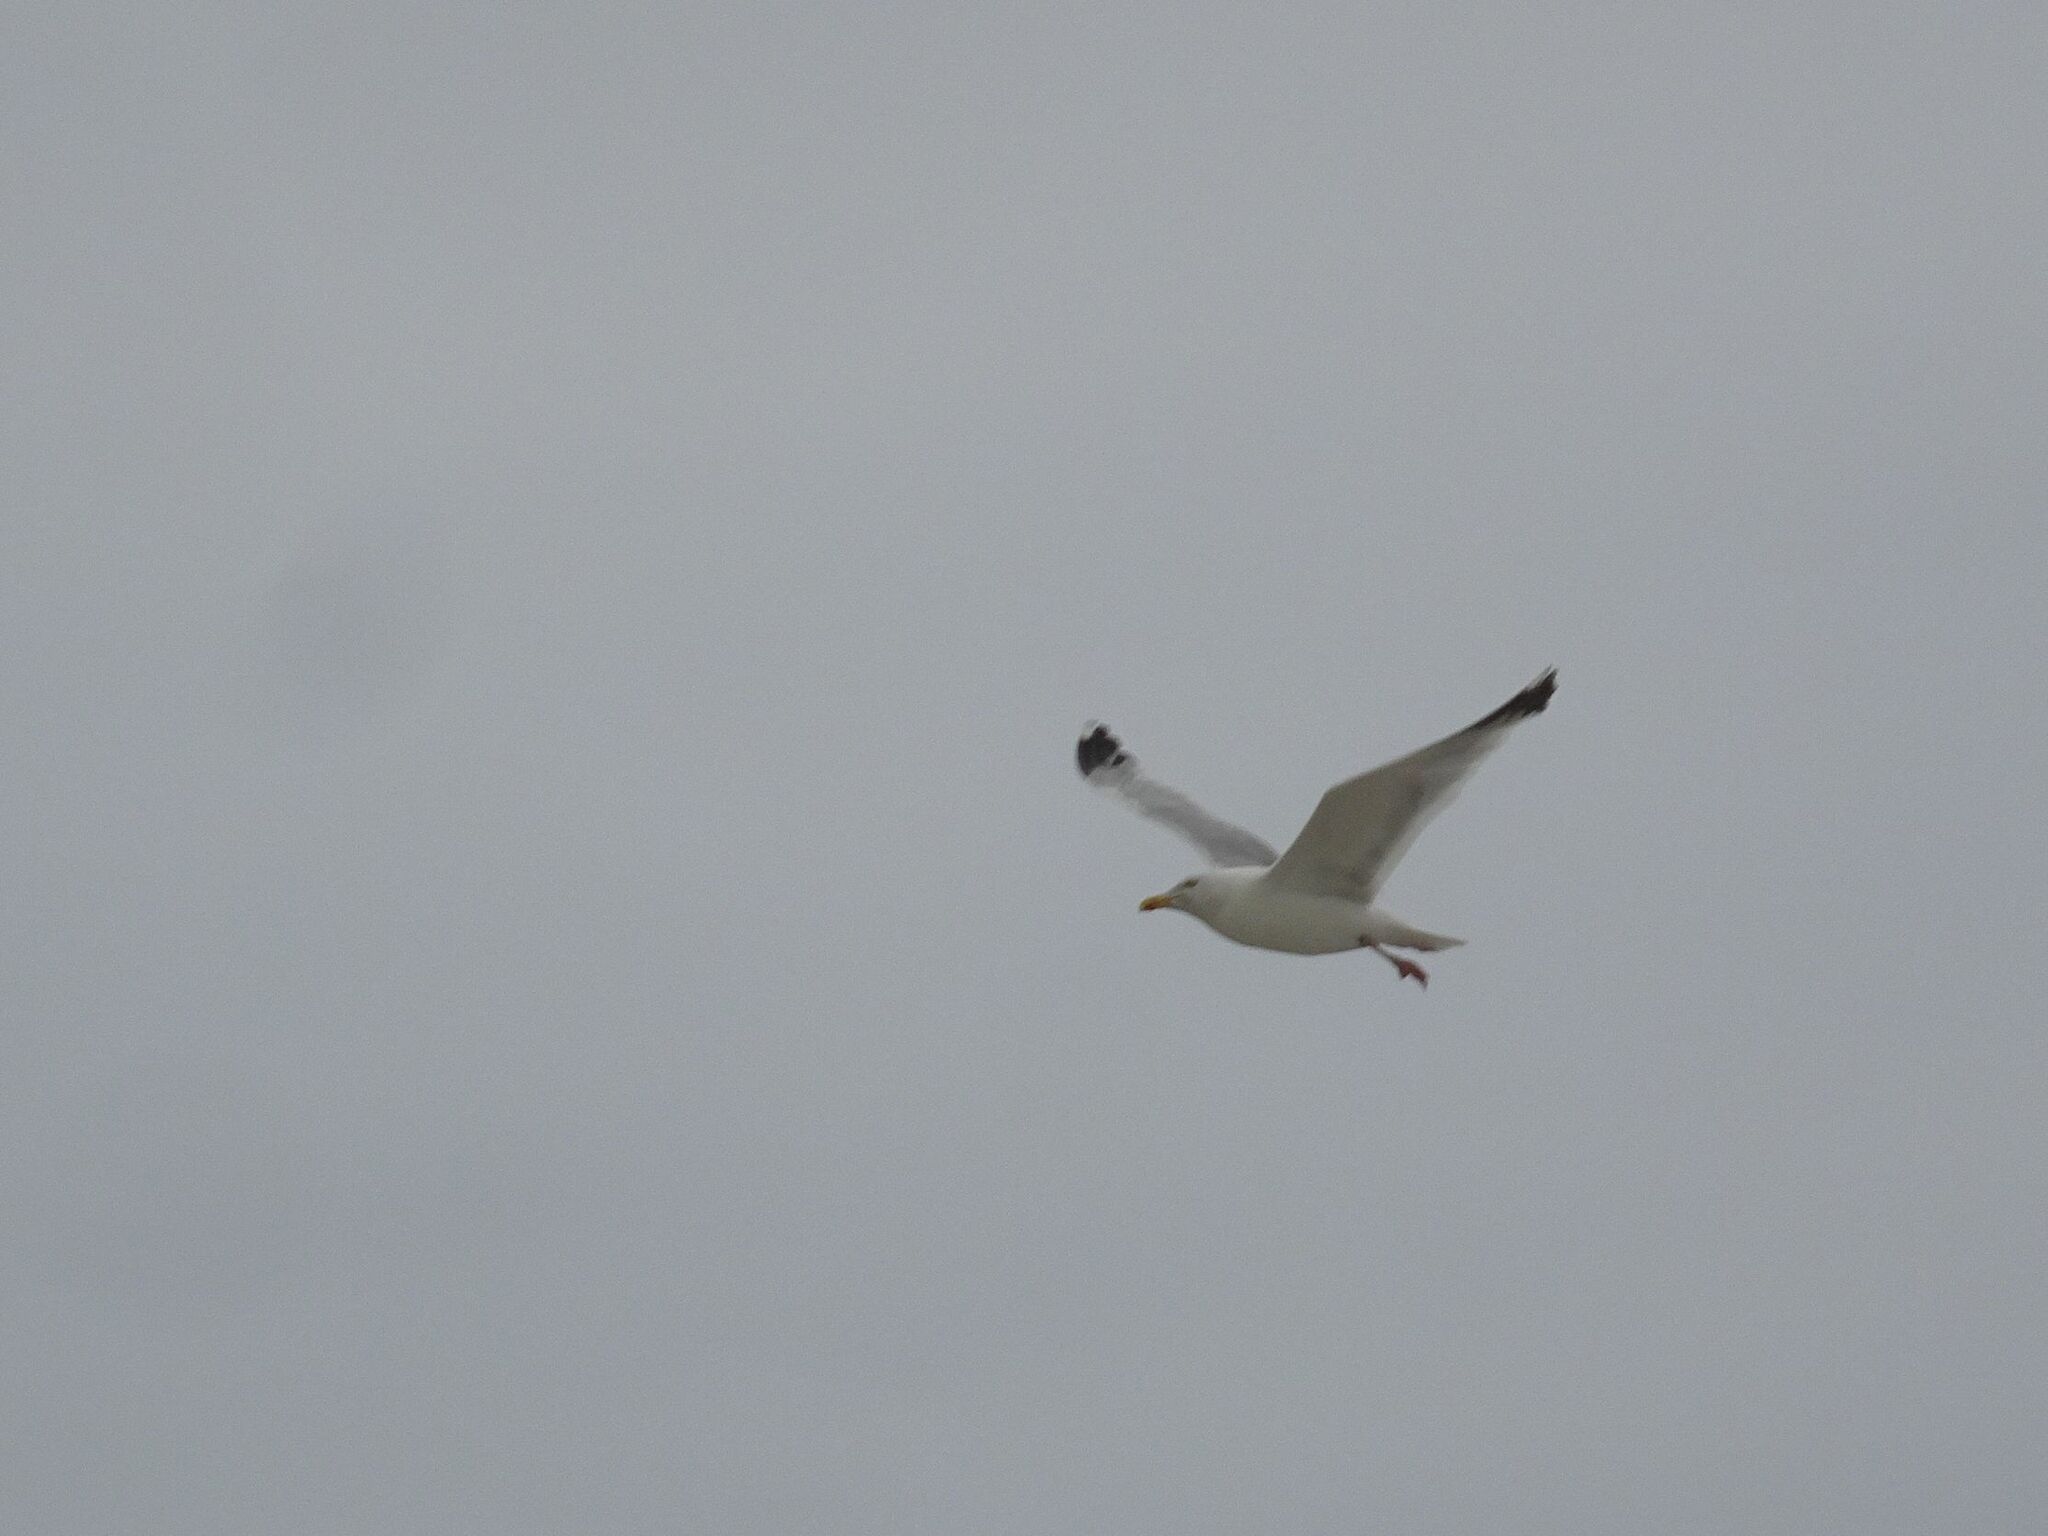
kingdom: Animalia
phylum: Chordata
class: Aves
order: Charadriiformes
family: Laridae
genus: Larus
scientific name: Larus argentatus
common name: Herring gull
